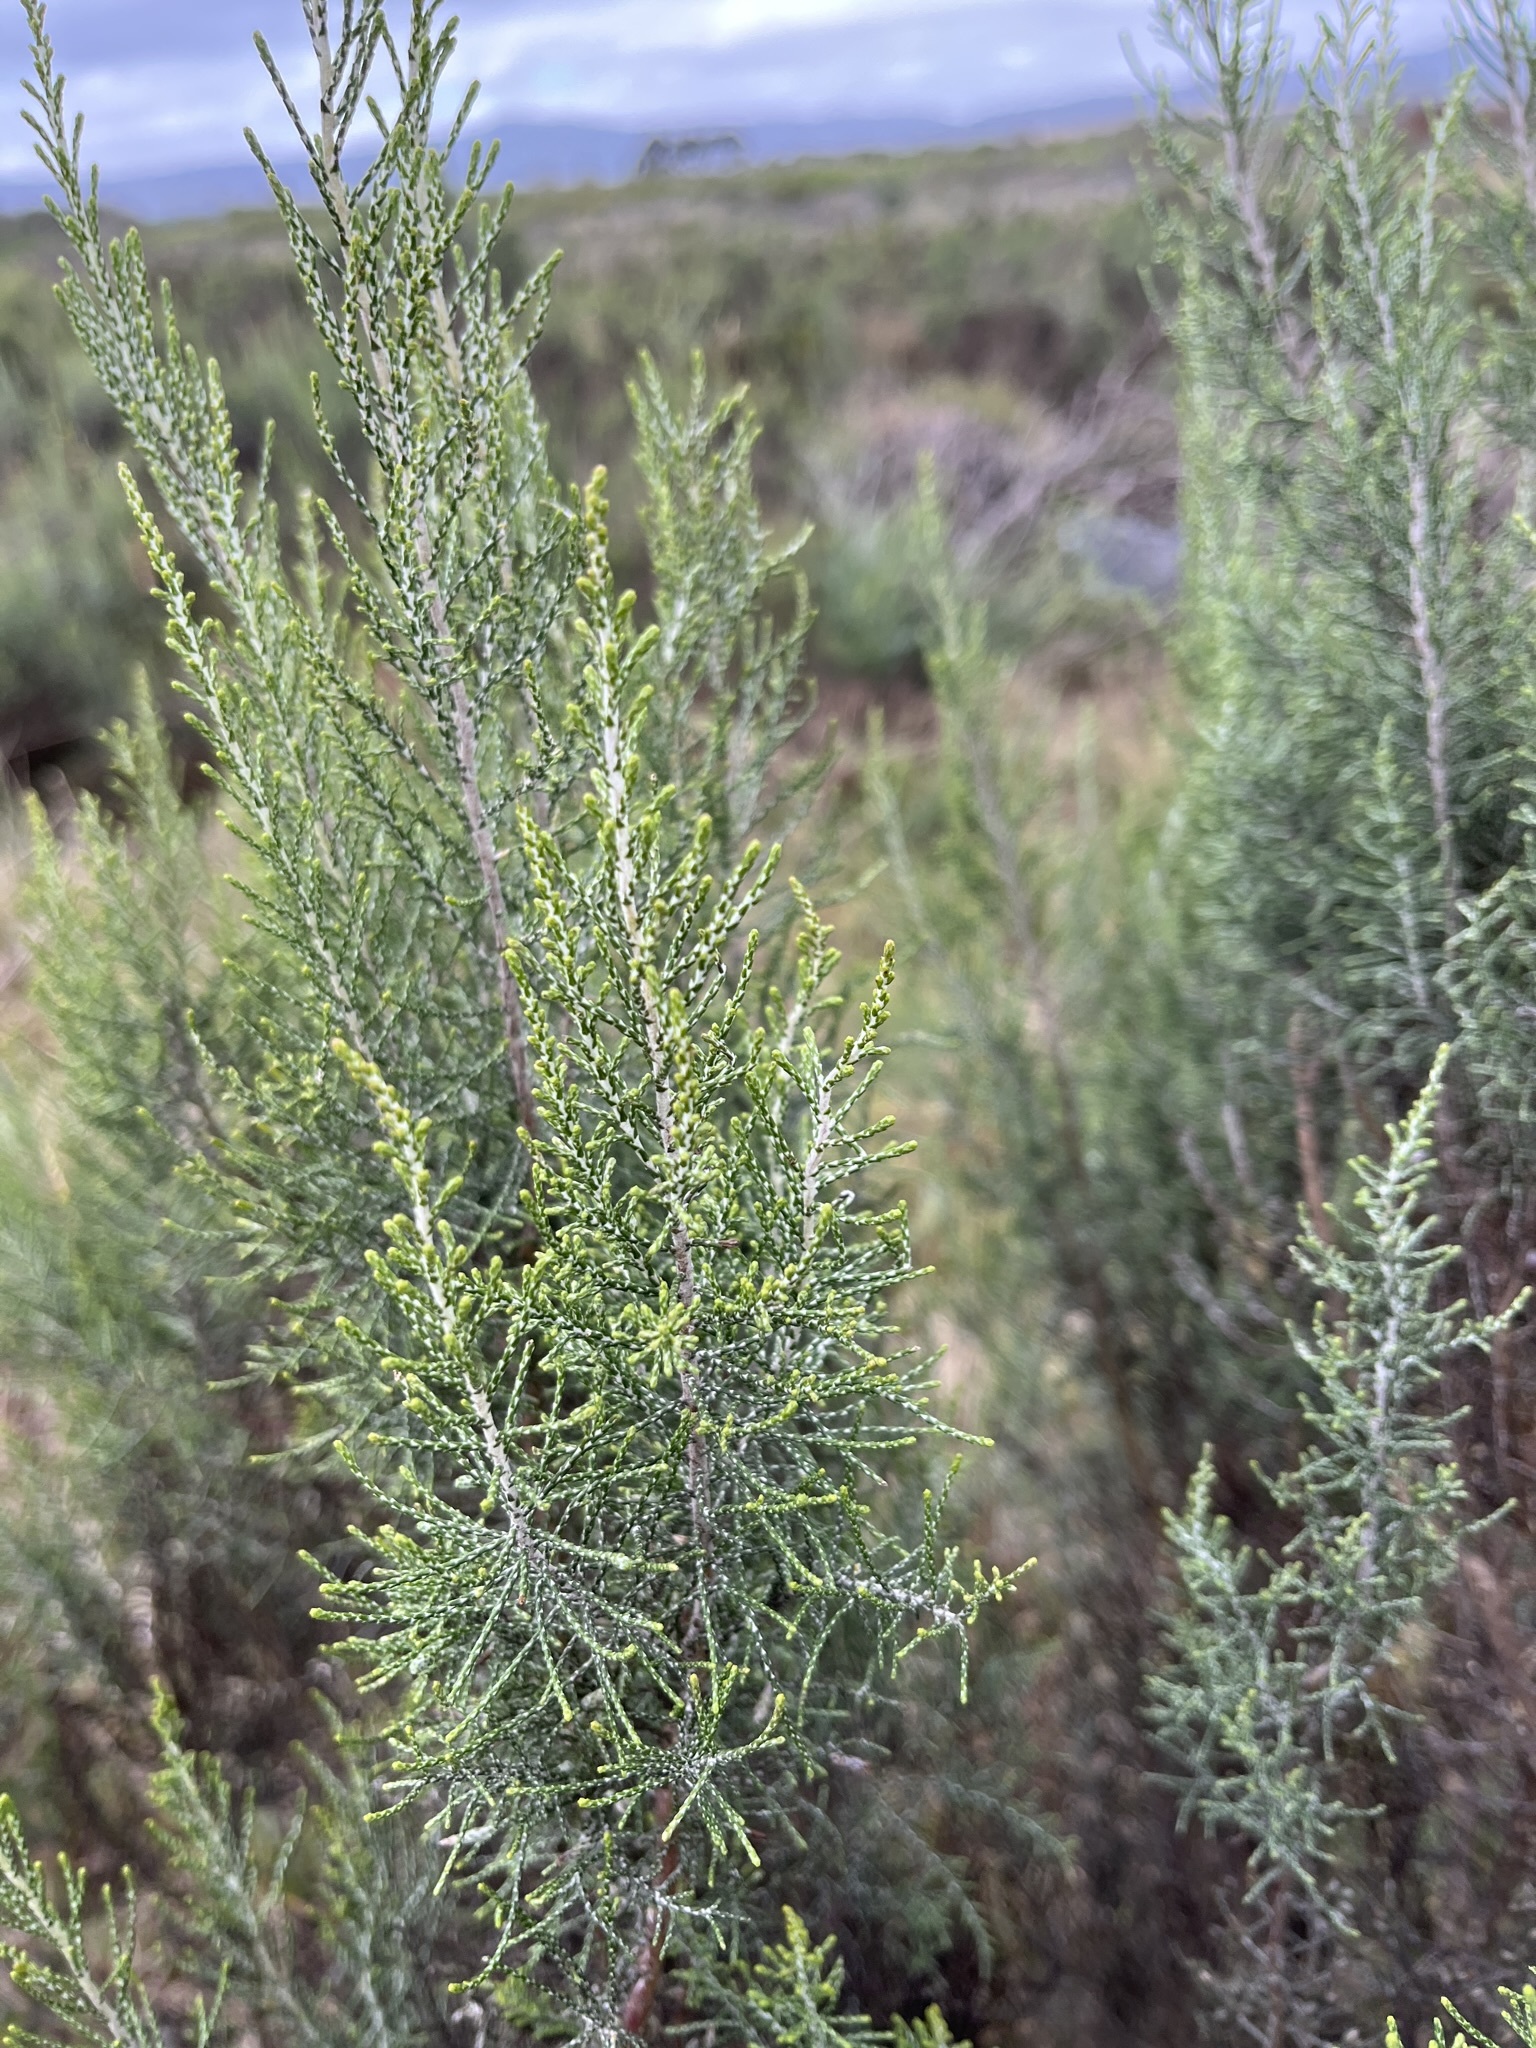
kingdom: Plantae
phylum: Tracheophyta
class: Magnoliopsida
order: Asterales
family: Asteraceae
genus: Dicerothamnus
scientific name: Dicerothamnus rhinocerotis
